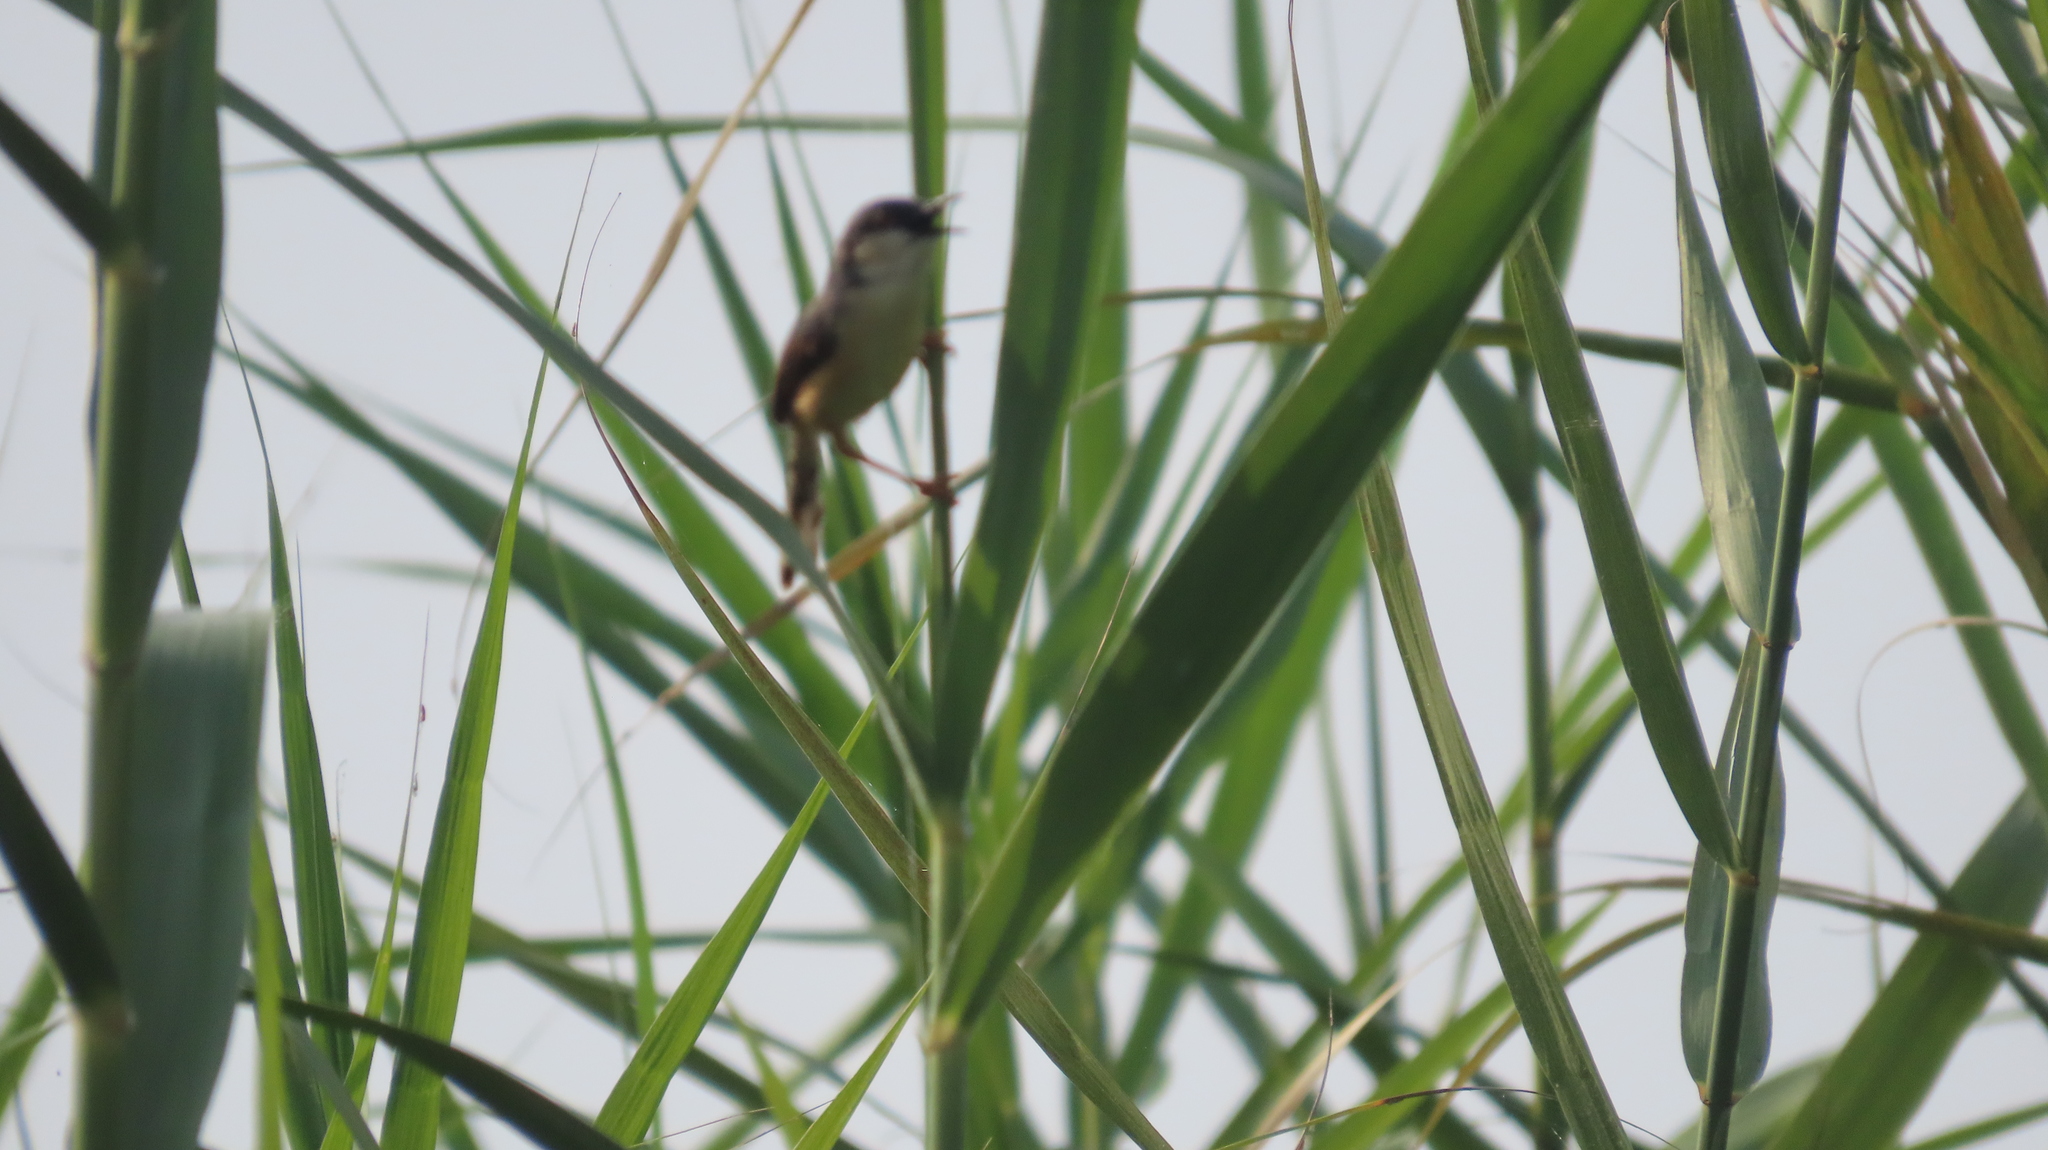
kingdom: Animalia
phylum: Chordata
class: Aves
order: Passeriformes
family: Cisticolidae
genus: Prinia
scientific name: Prinia socialis
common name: Ashy prinia
